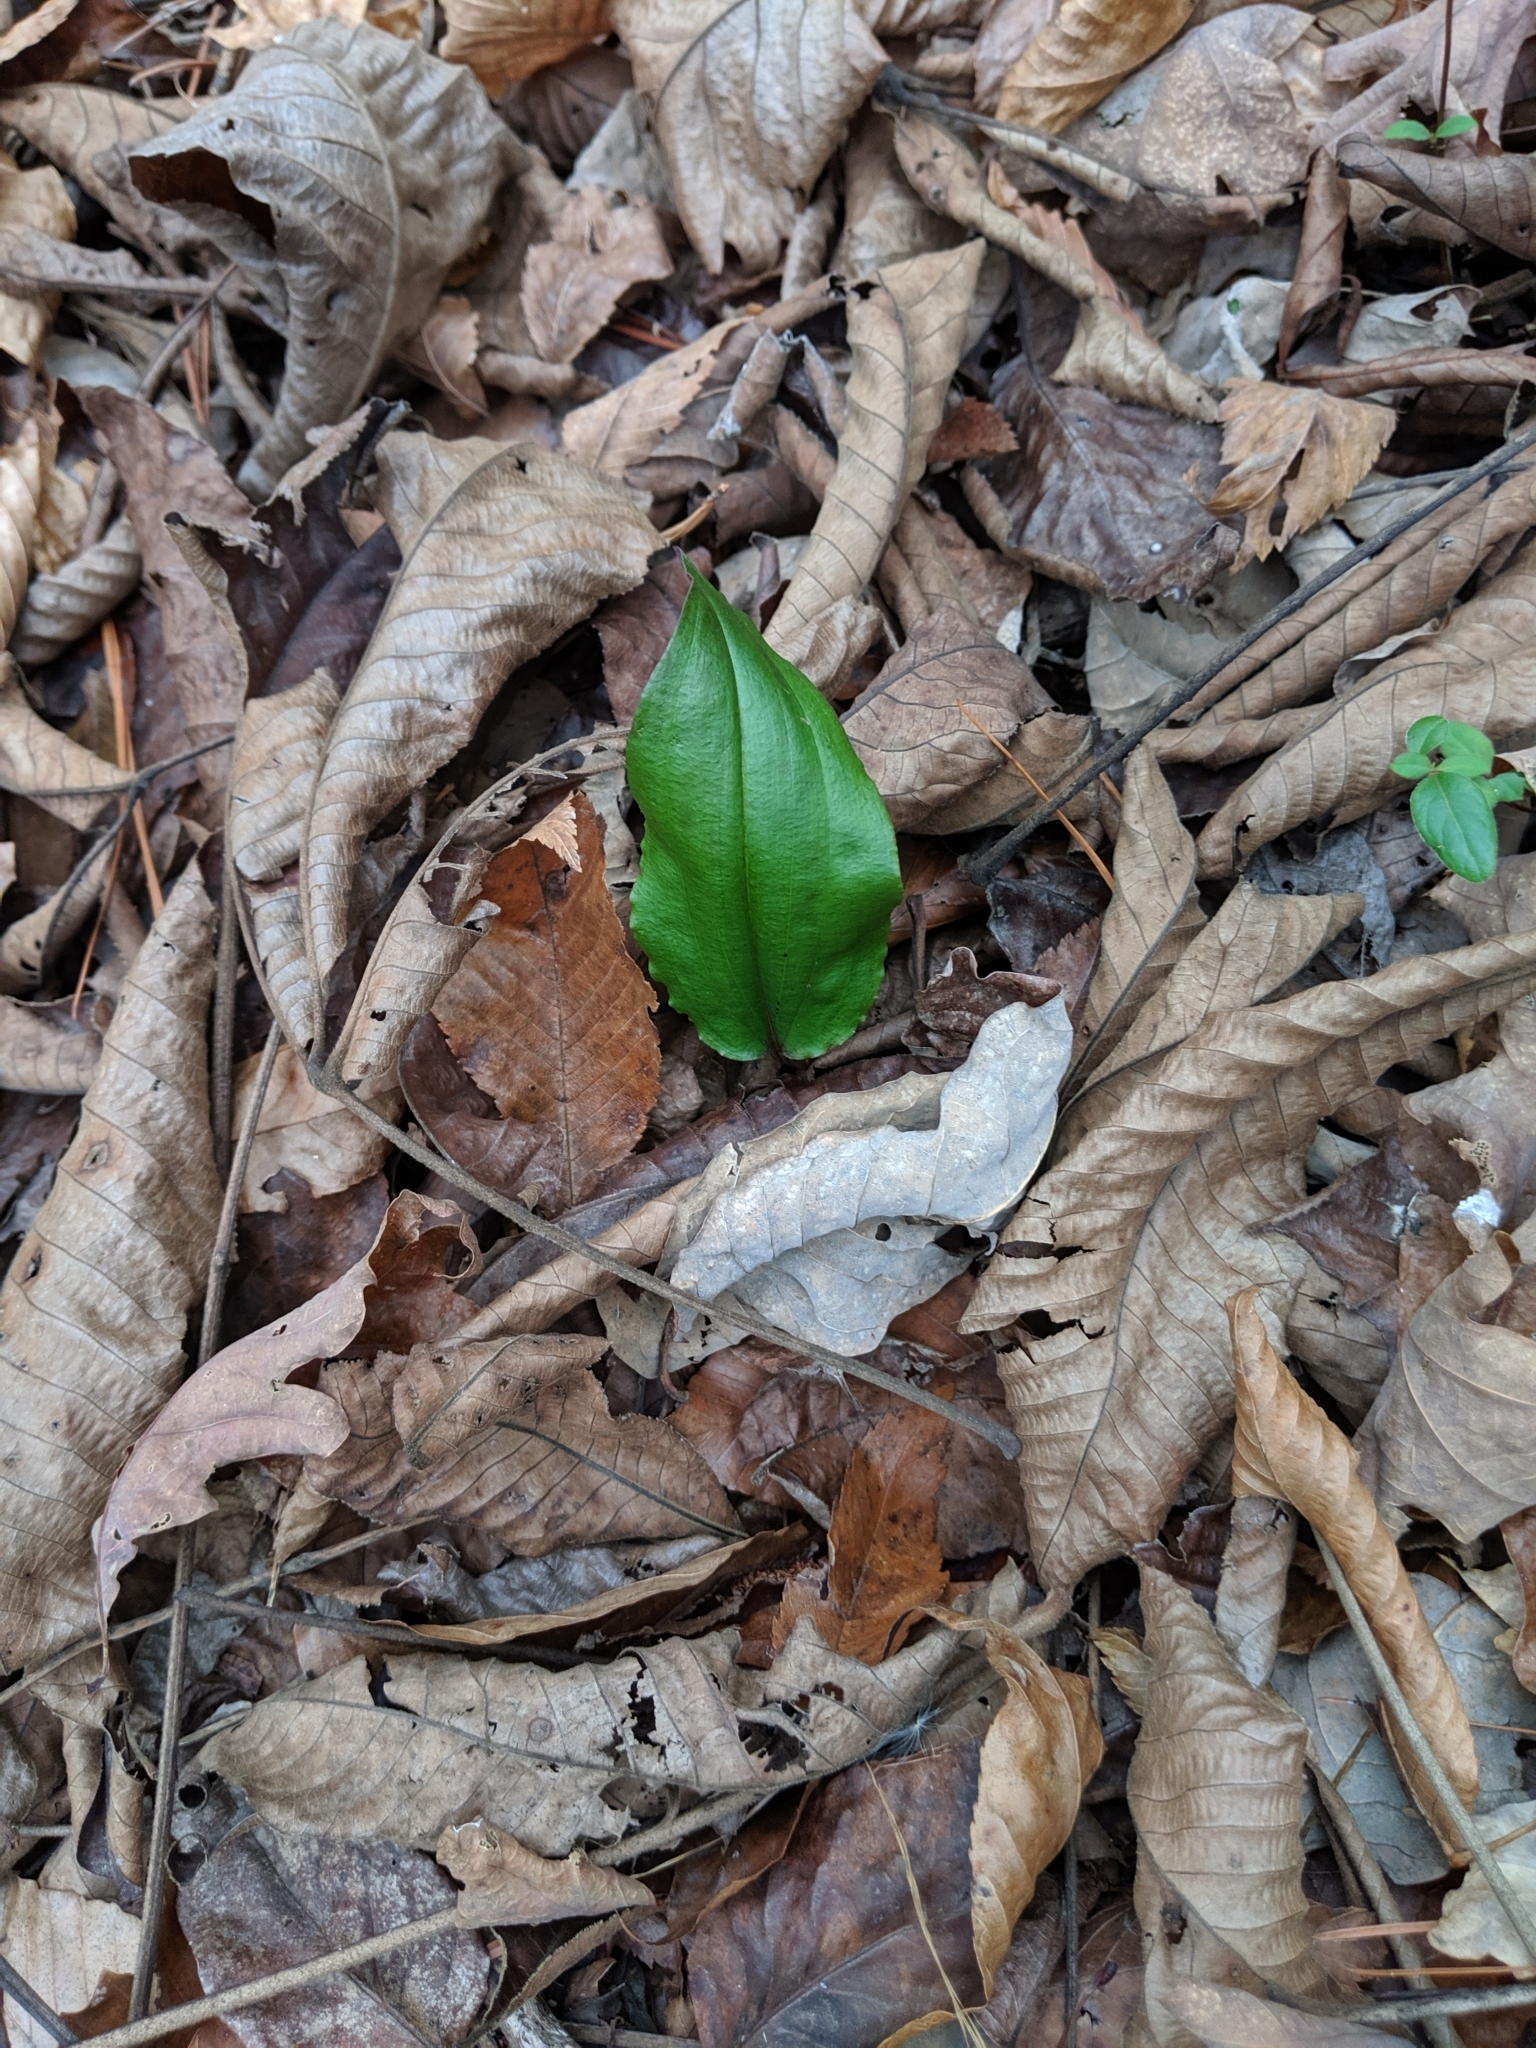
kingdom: Plantae
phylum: Tracheophyta
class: Liliopsida
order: Asparagales
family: Orchidaceae
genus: Tipularia
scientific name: Tipularia discolor
